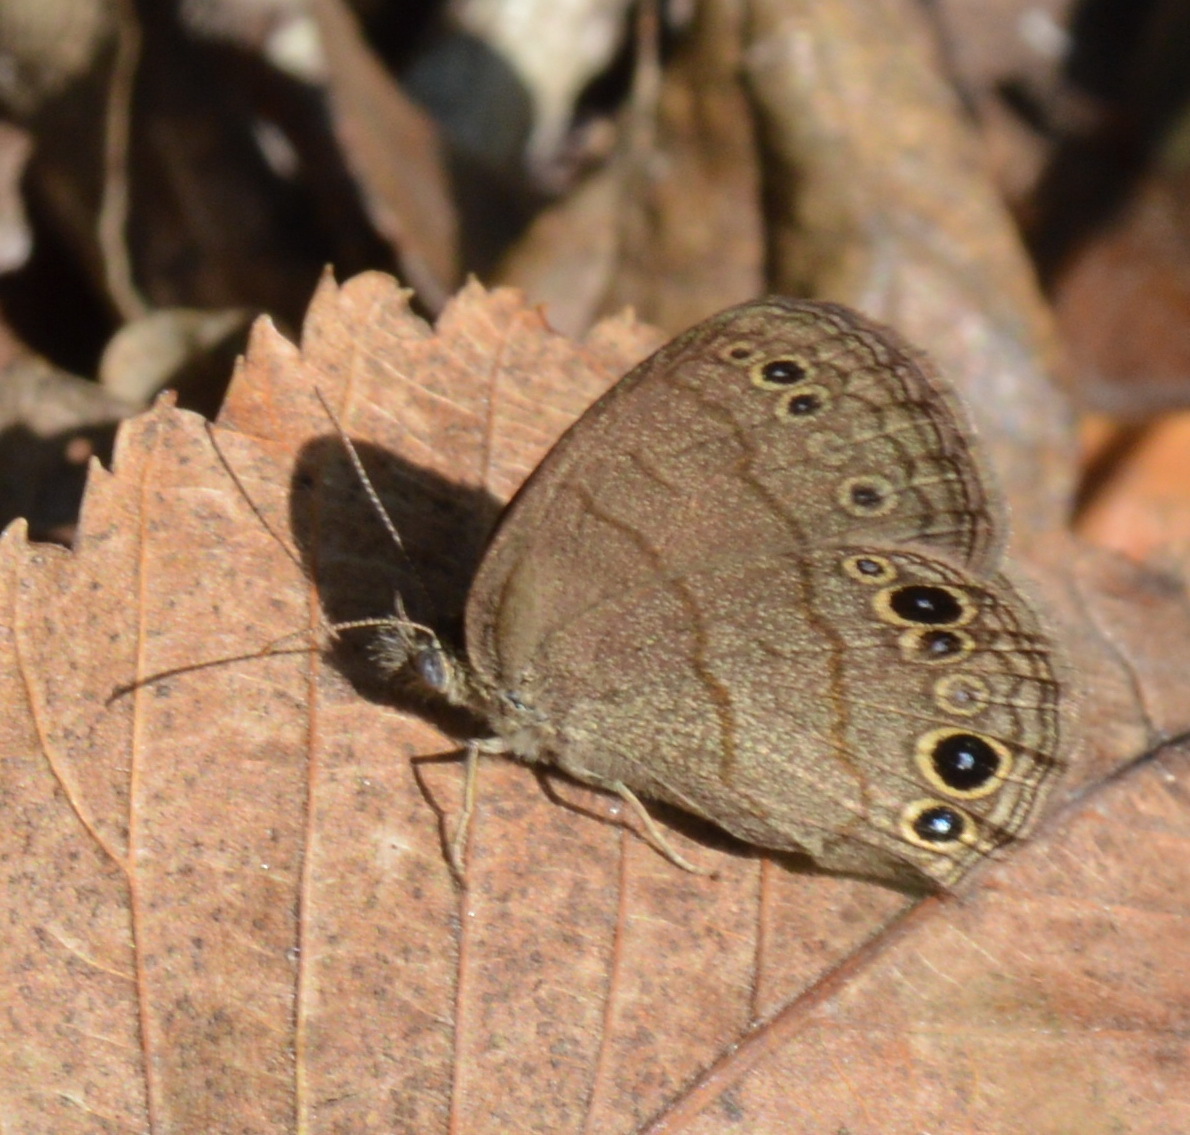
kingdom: Animalia
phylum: Arthropoda
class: Insecta
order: Lepidoptera
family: Nymphalidae
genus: Hermeuptychia
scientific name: Hermeuptychia hermes
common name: Hermes satyr
